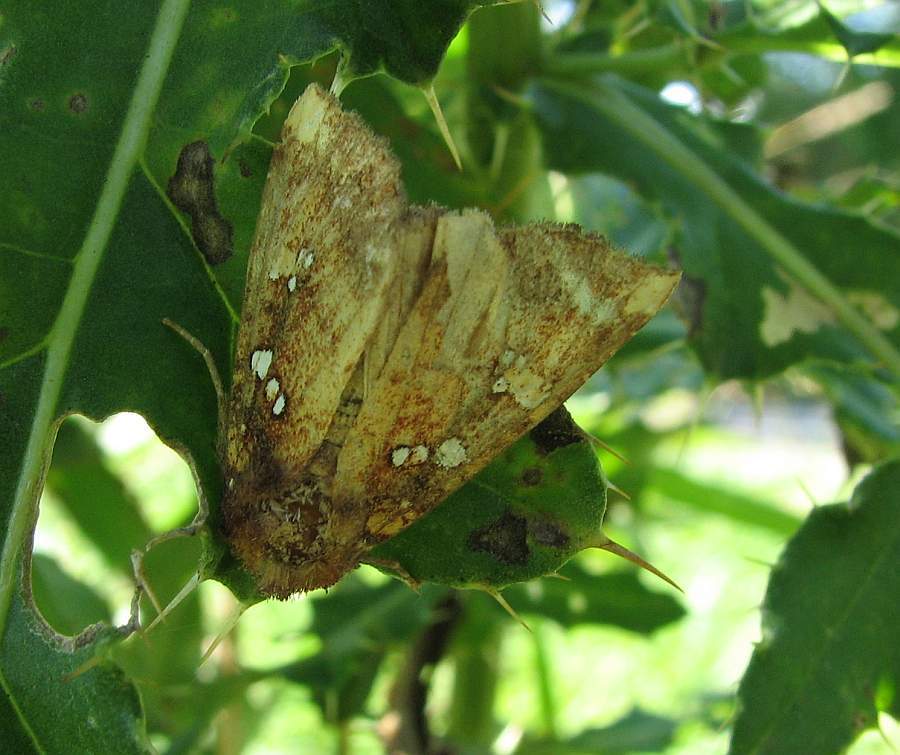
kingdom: Animalia
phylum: Arthropoda
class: Insecta
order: Lepidoptera
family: Noctuidae
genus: Papaipema
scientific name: Papaipema baptisiae
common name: Wild indigo borer moth
